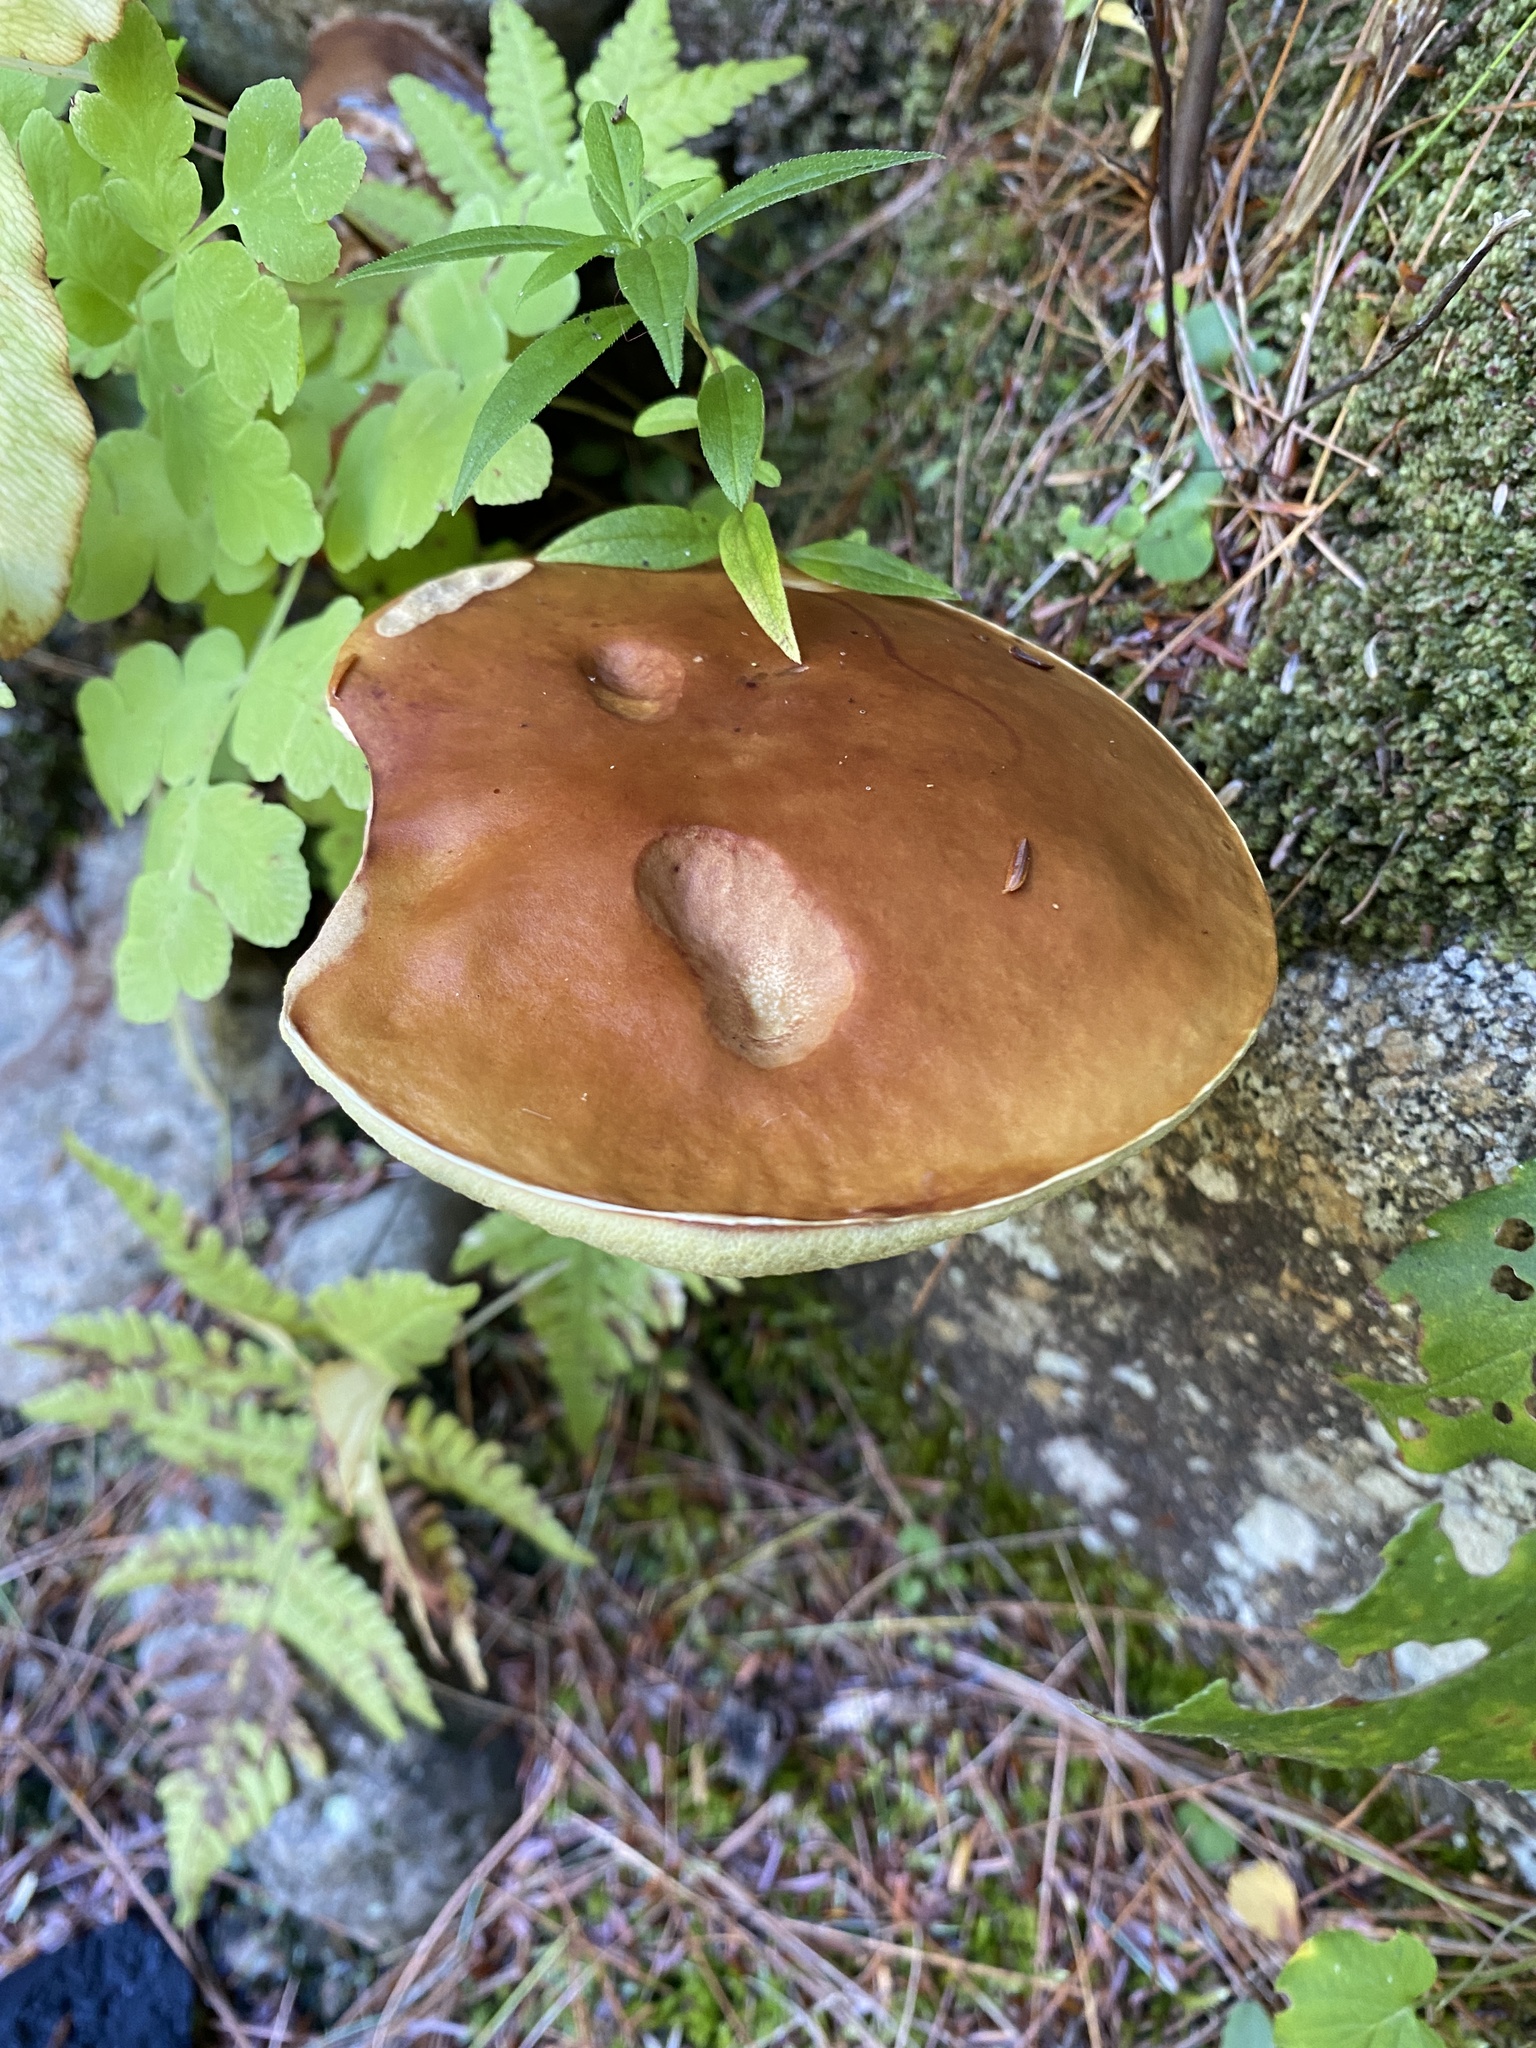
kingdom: Fungi
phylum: Basidiomycota
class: Agaricomycetes
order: Boletales
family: Boletaceae
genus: Boletus
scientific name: Boletus chippewaensis
